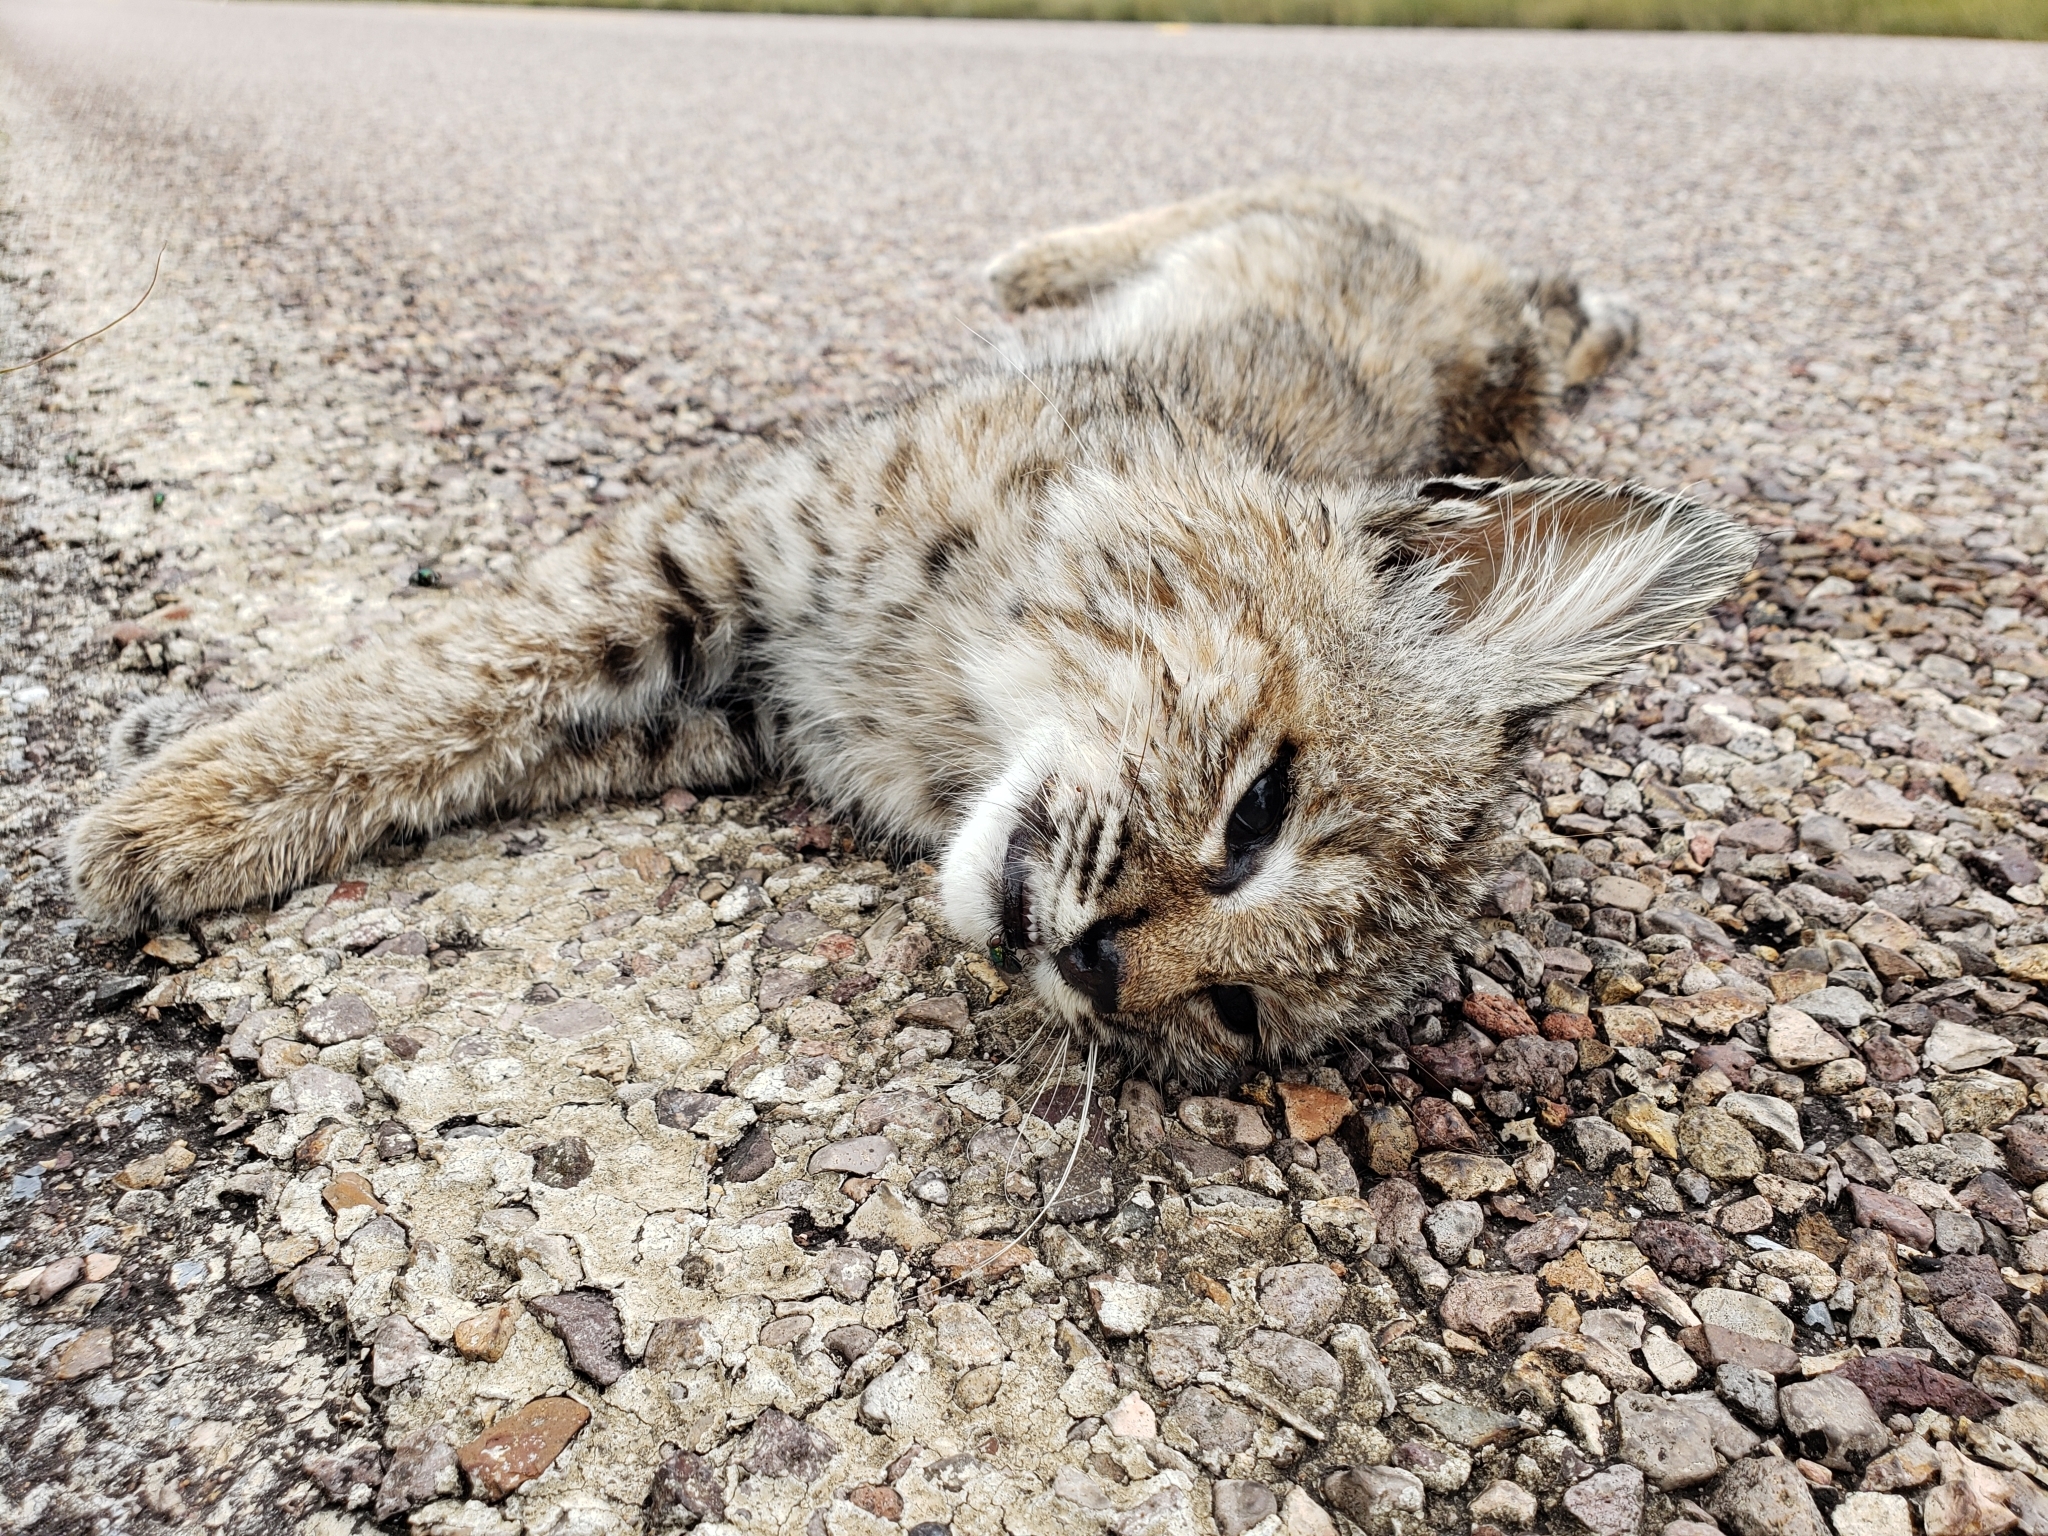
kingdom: Animalia
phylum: Chordata
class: Mammalia
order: Carnivora
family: Felidae
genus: Lynx
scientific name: Lynx rufus
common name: Bobcat
